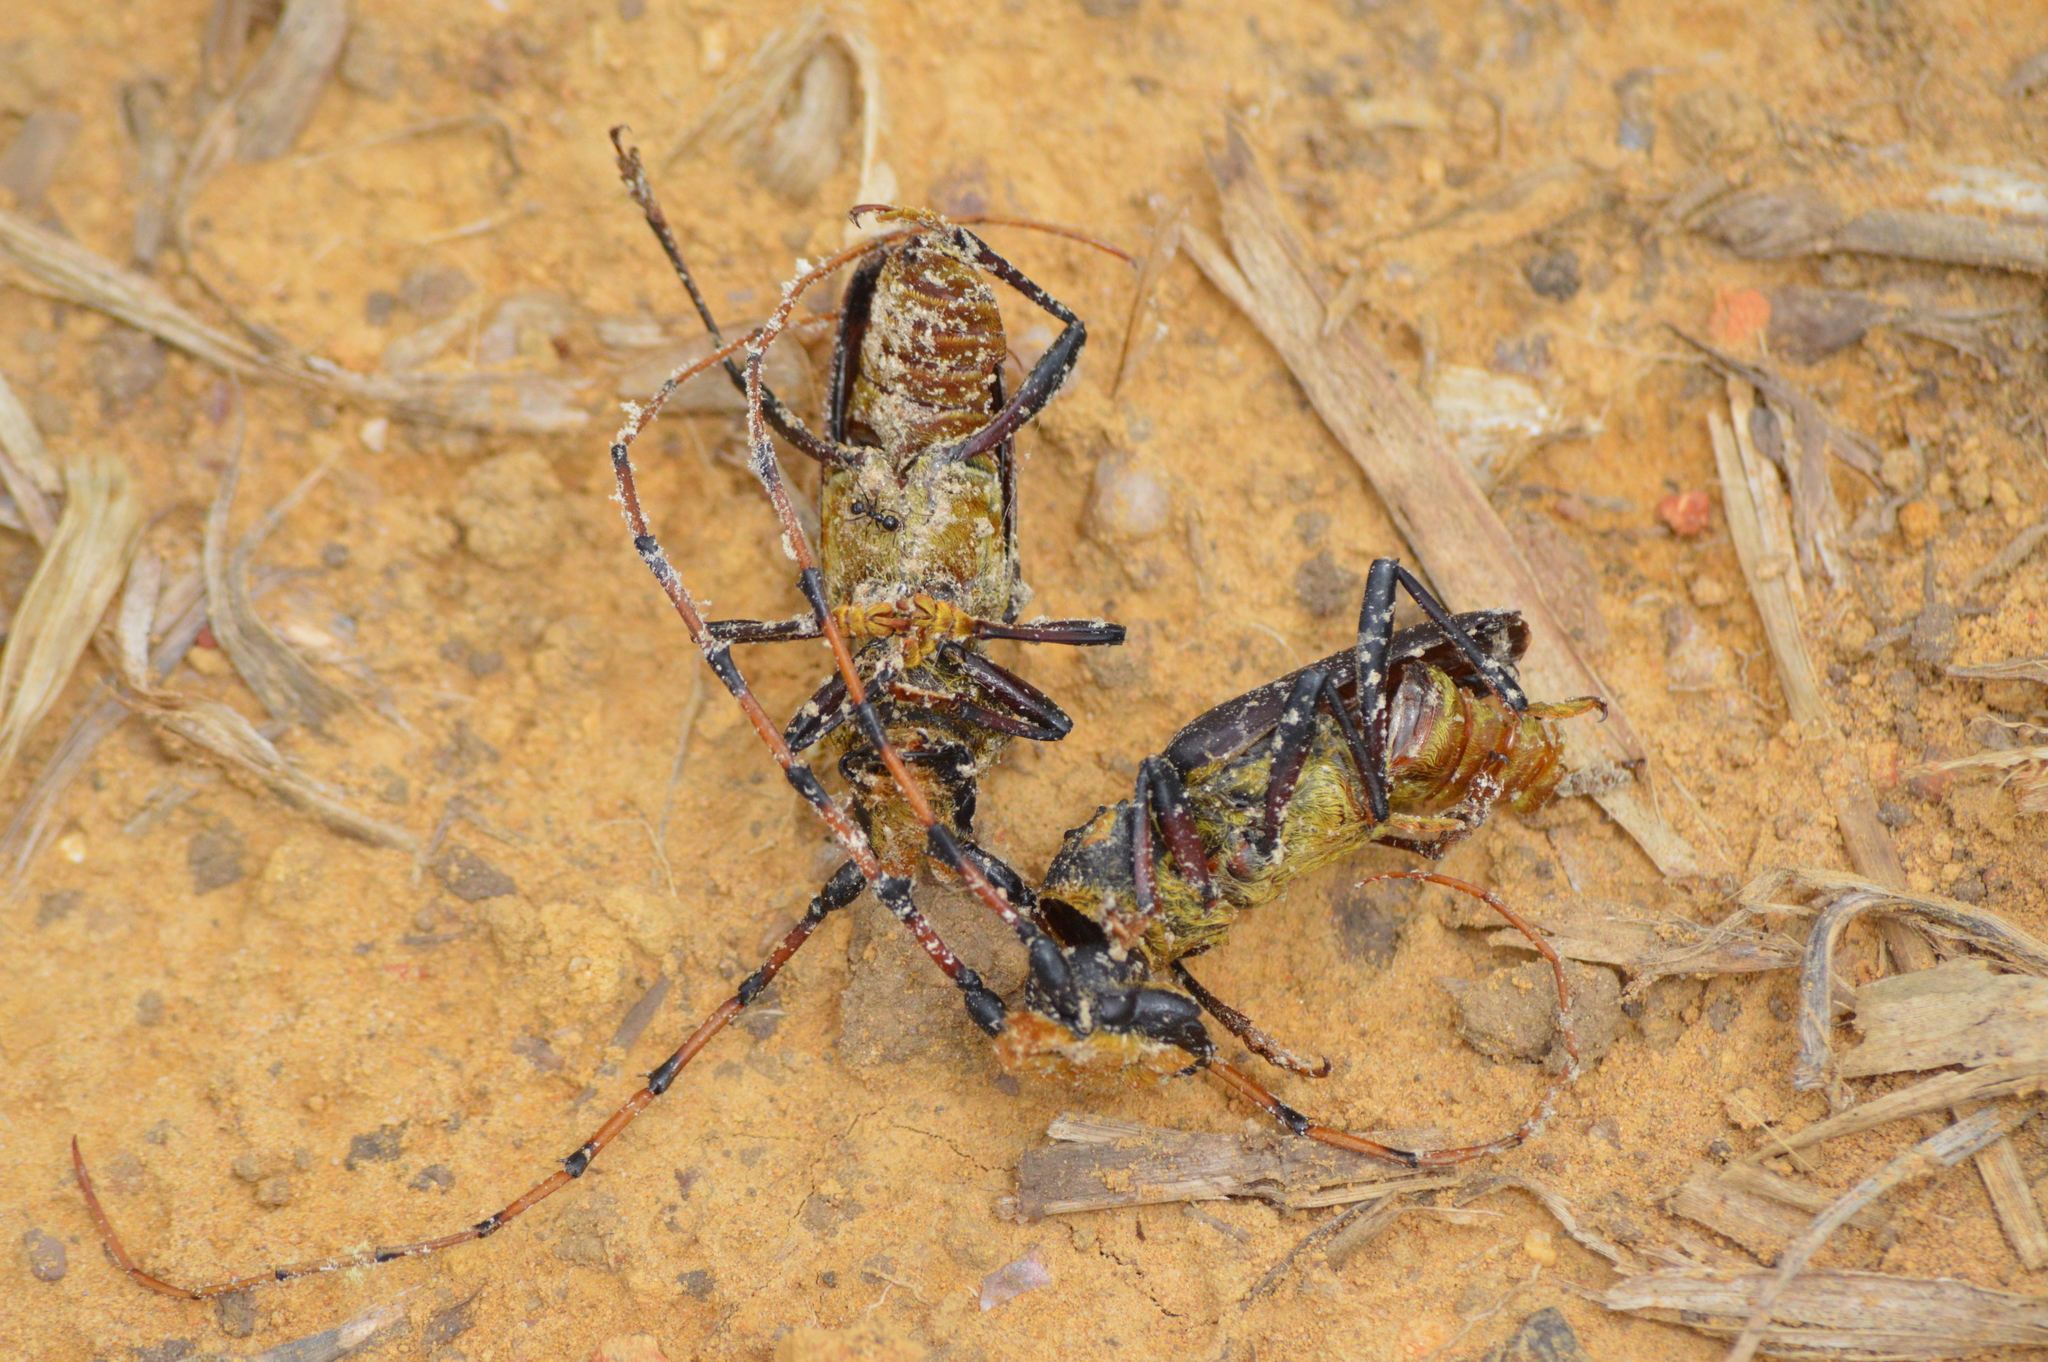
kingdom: Animalia
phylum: Arthropoda
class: Insecta
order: Coleoptera
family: Cerambycidae
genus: Dorcacerus
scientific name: Dorcacerus barbatus
